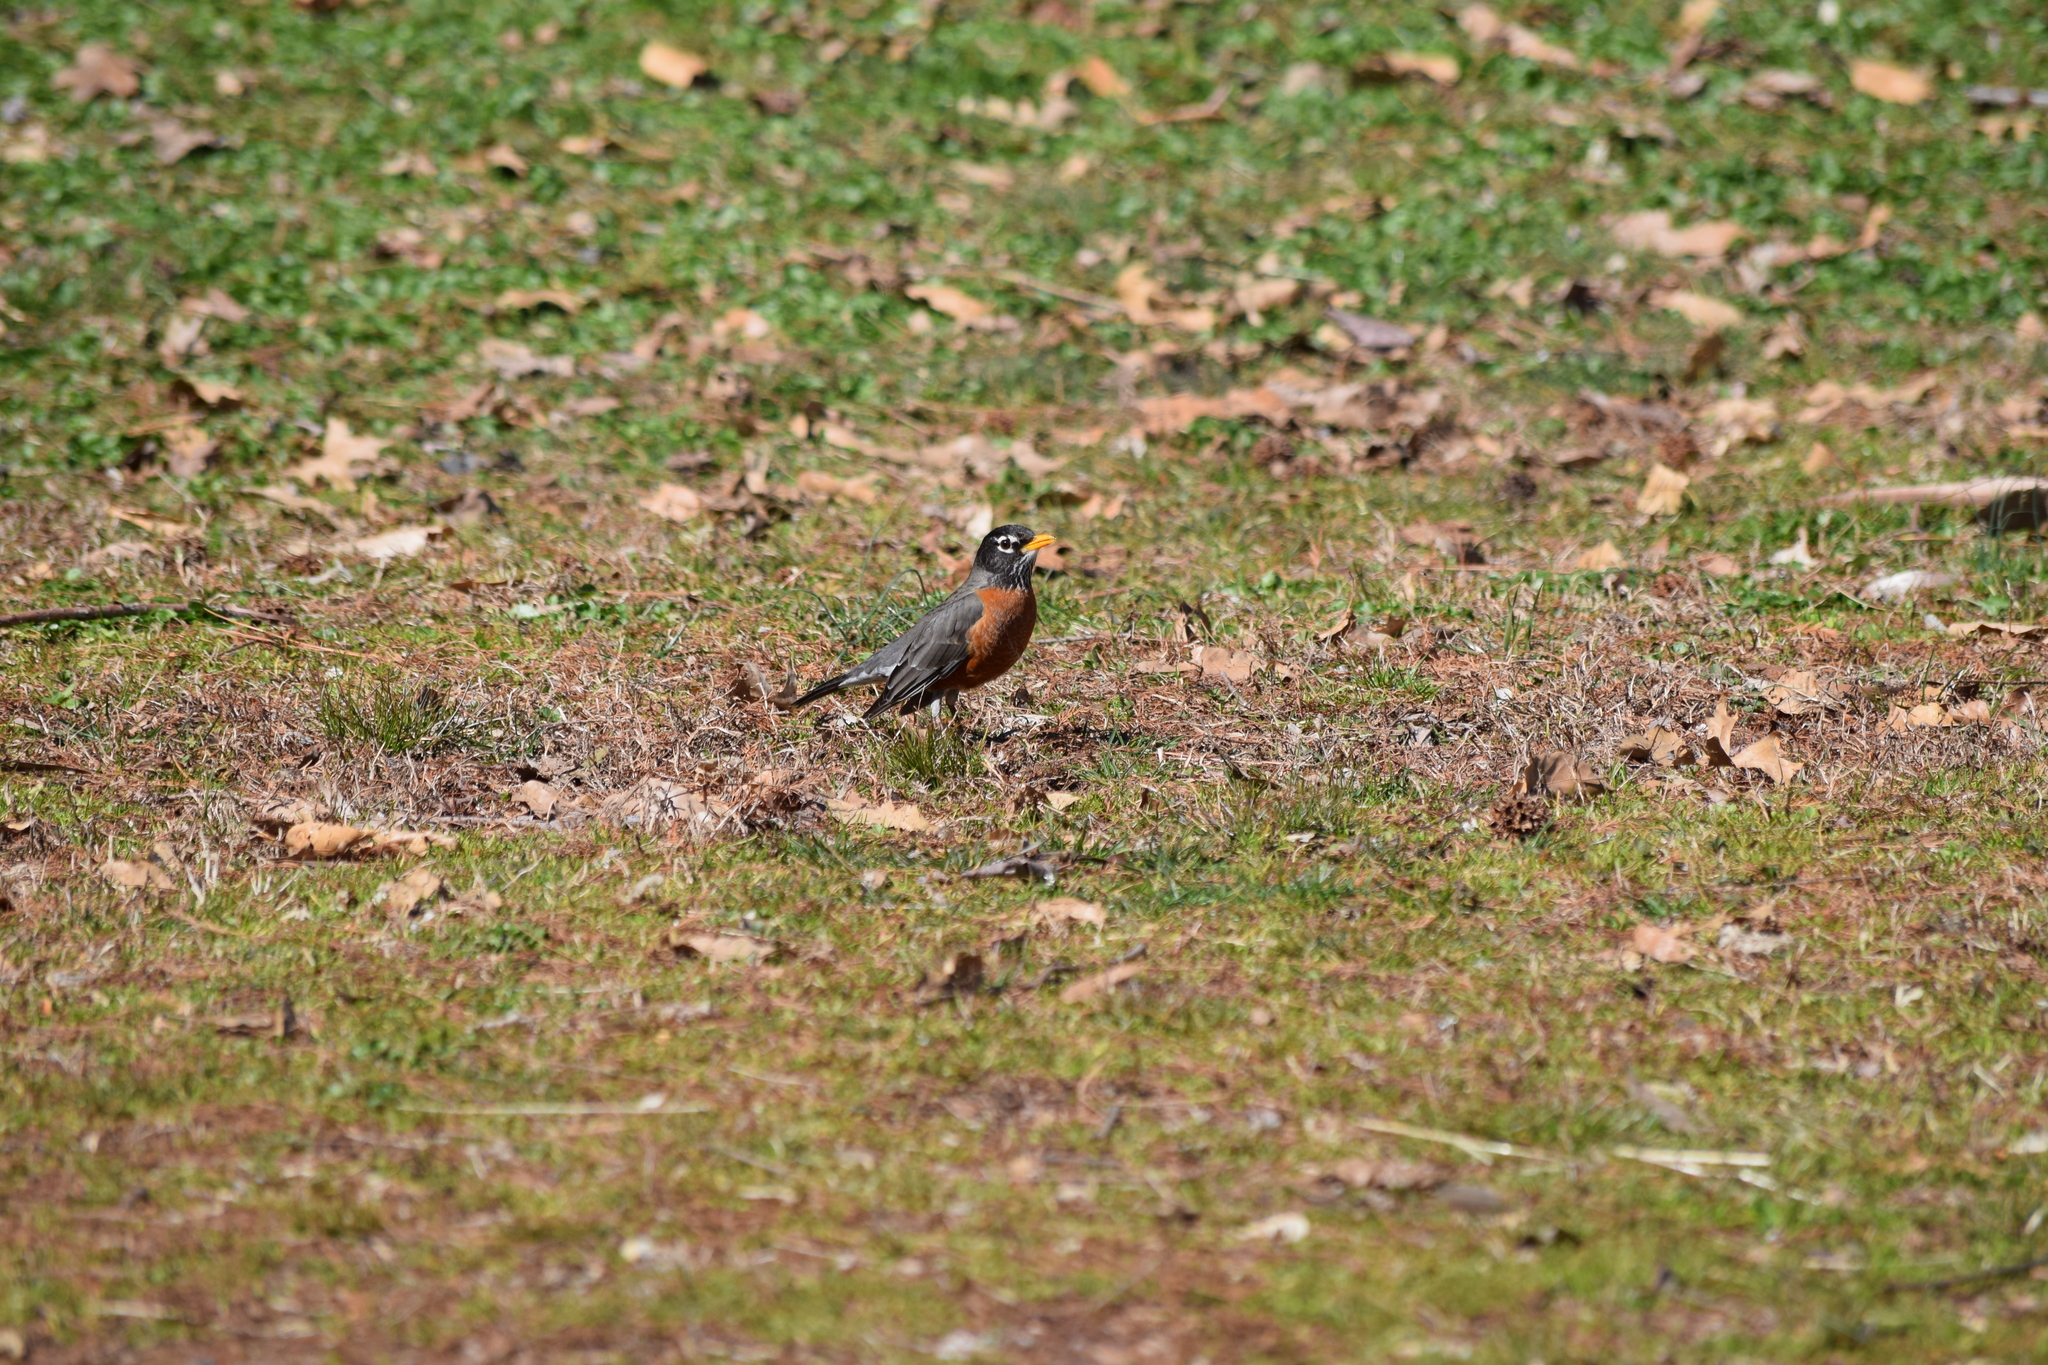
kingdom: Animalia
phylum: Chordata
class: Aves
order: Passeriformes
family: Turdidae
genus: Turdus
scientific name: Turdus migratorius
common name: American robin
